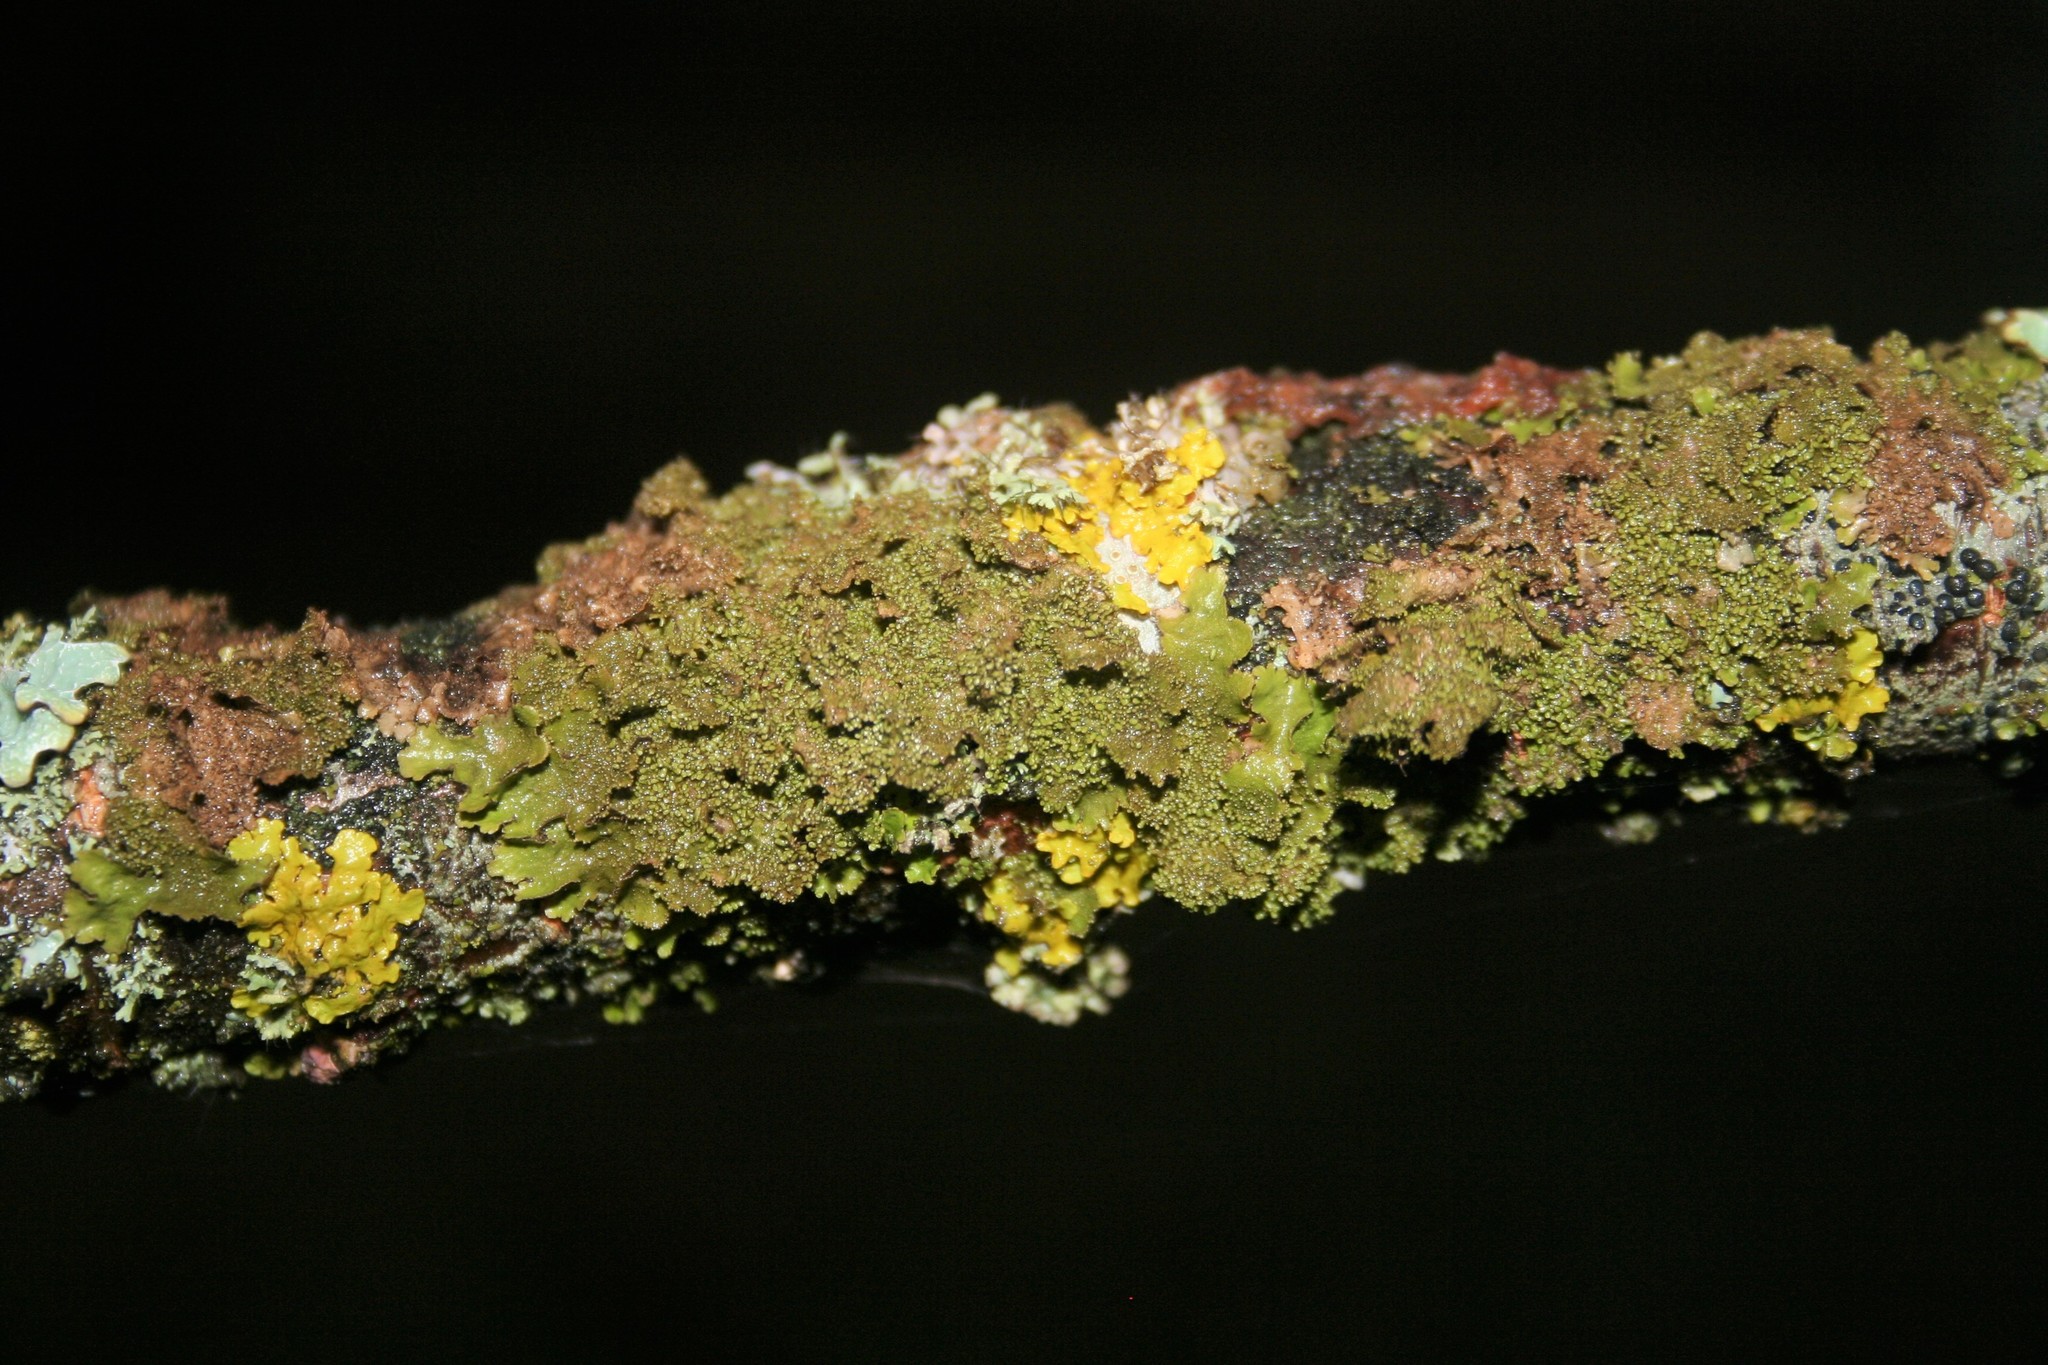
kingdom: Fungi
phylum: Ascomycota
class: Lecanoromycetes
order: Lecanorales
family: Parmeliaceae
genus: Melanohalea
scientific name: Melanohalea exasperatula
